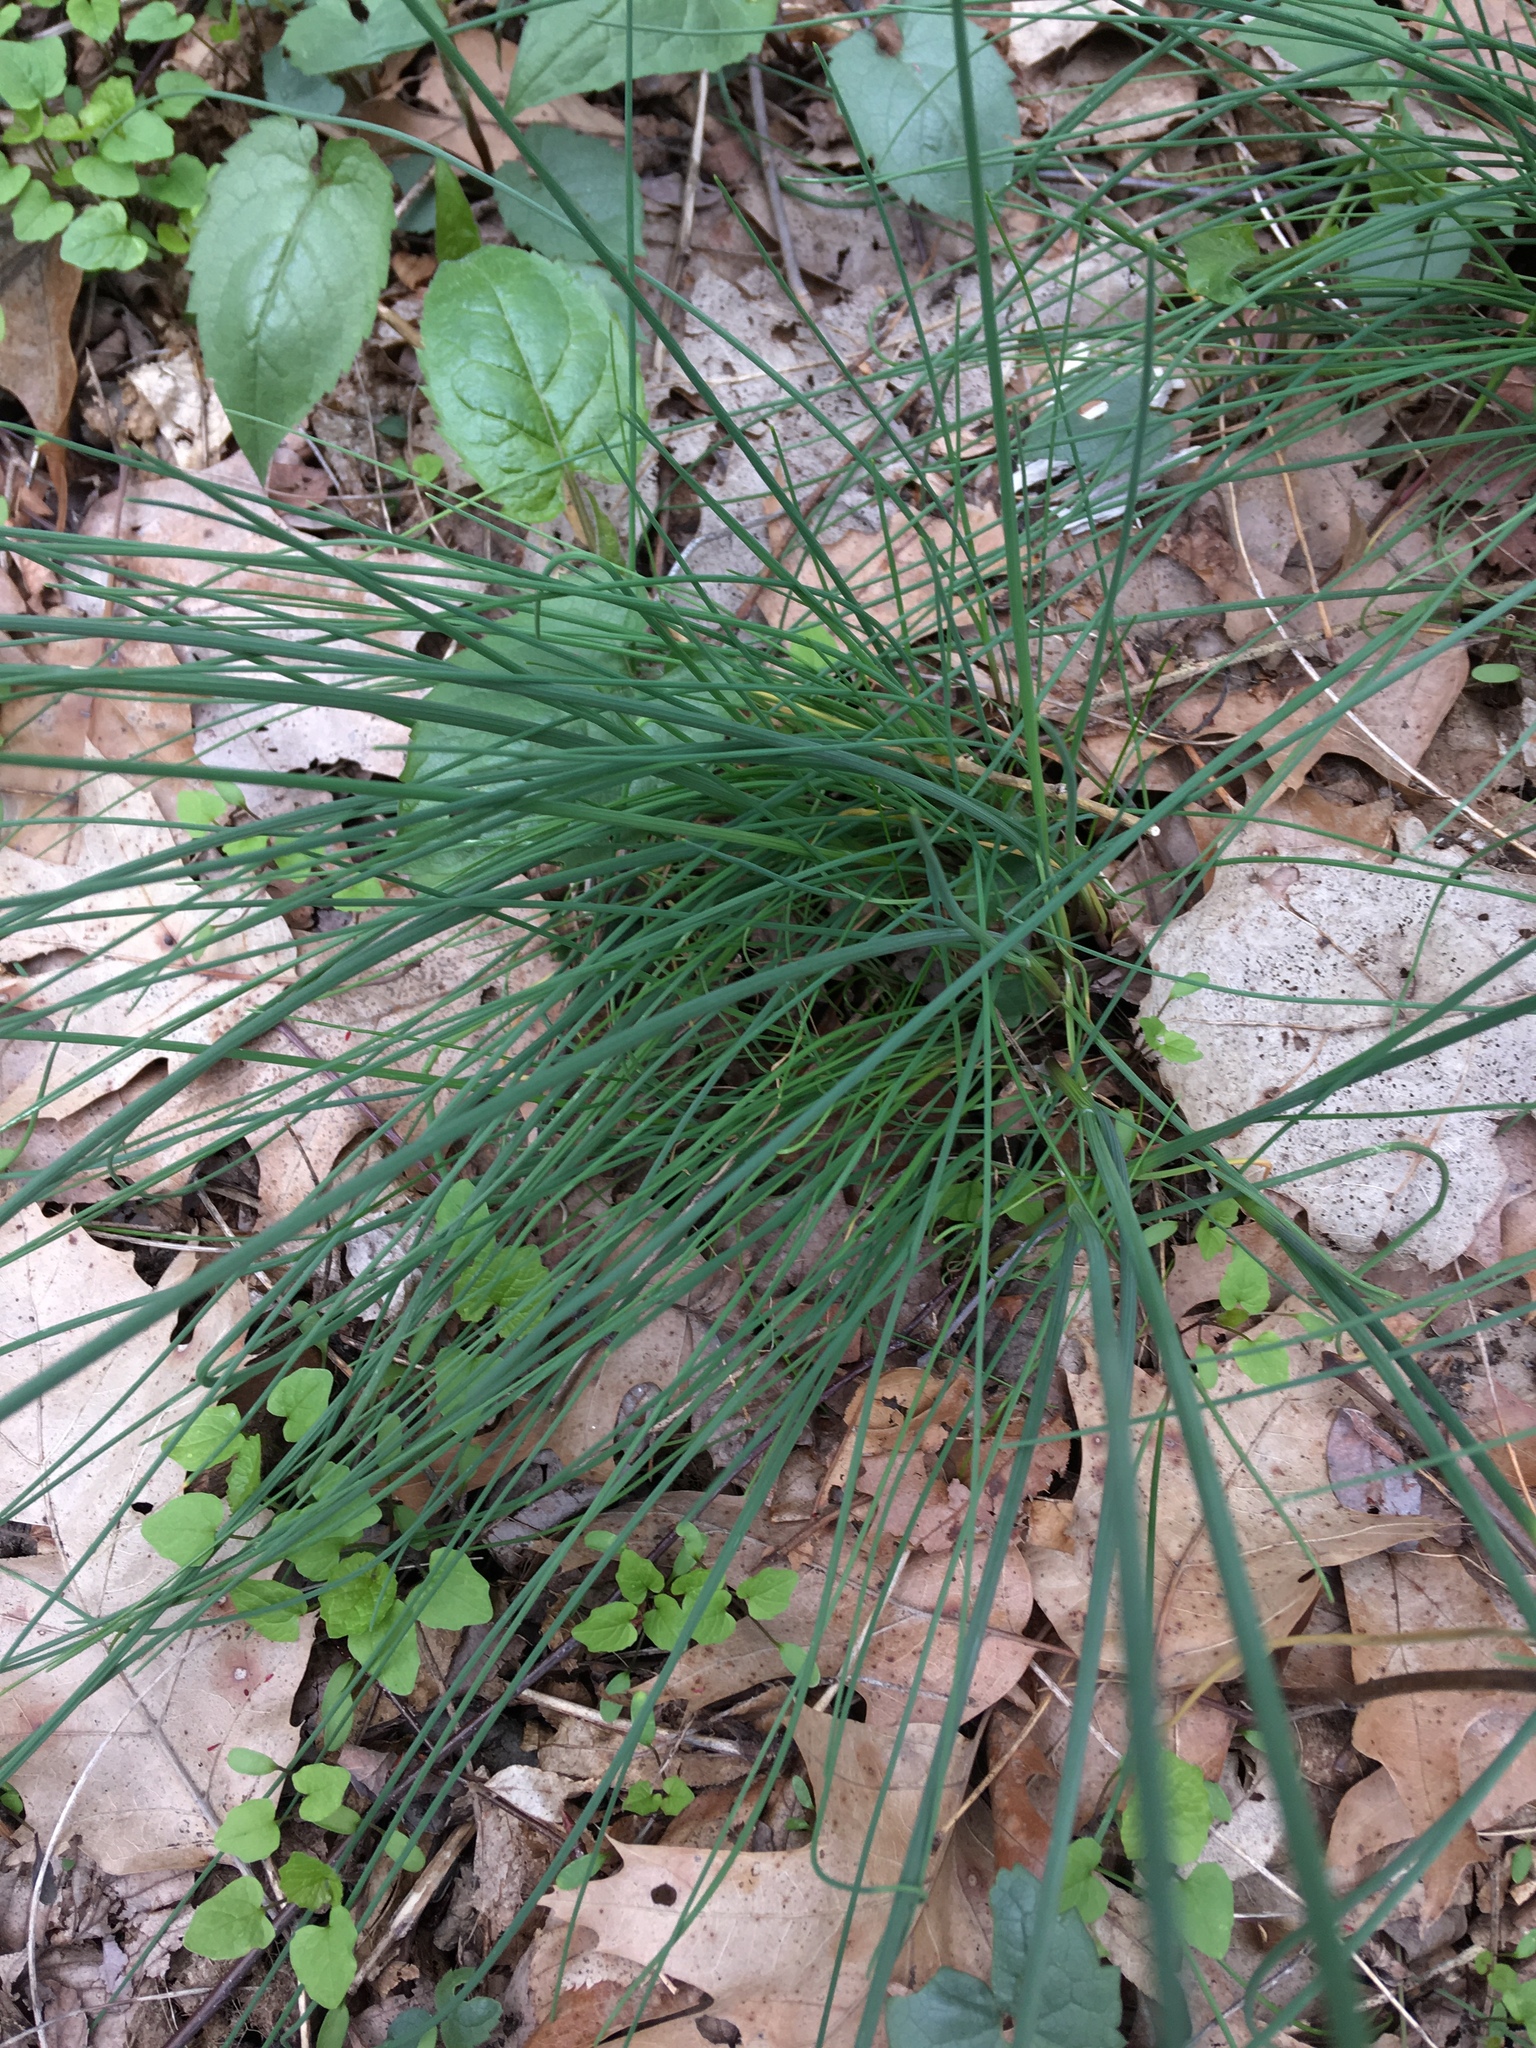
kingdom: Plantae
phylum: Tracheophyta
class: Liliopsida
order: Asparagales
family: Amaryllidaceae
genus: Allium
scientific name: Allium vineale
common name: Crow garlic
